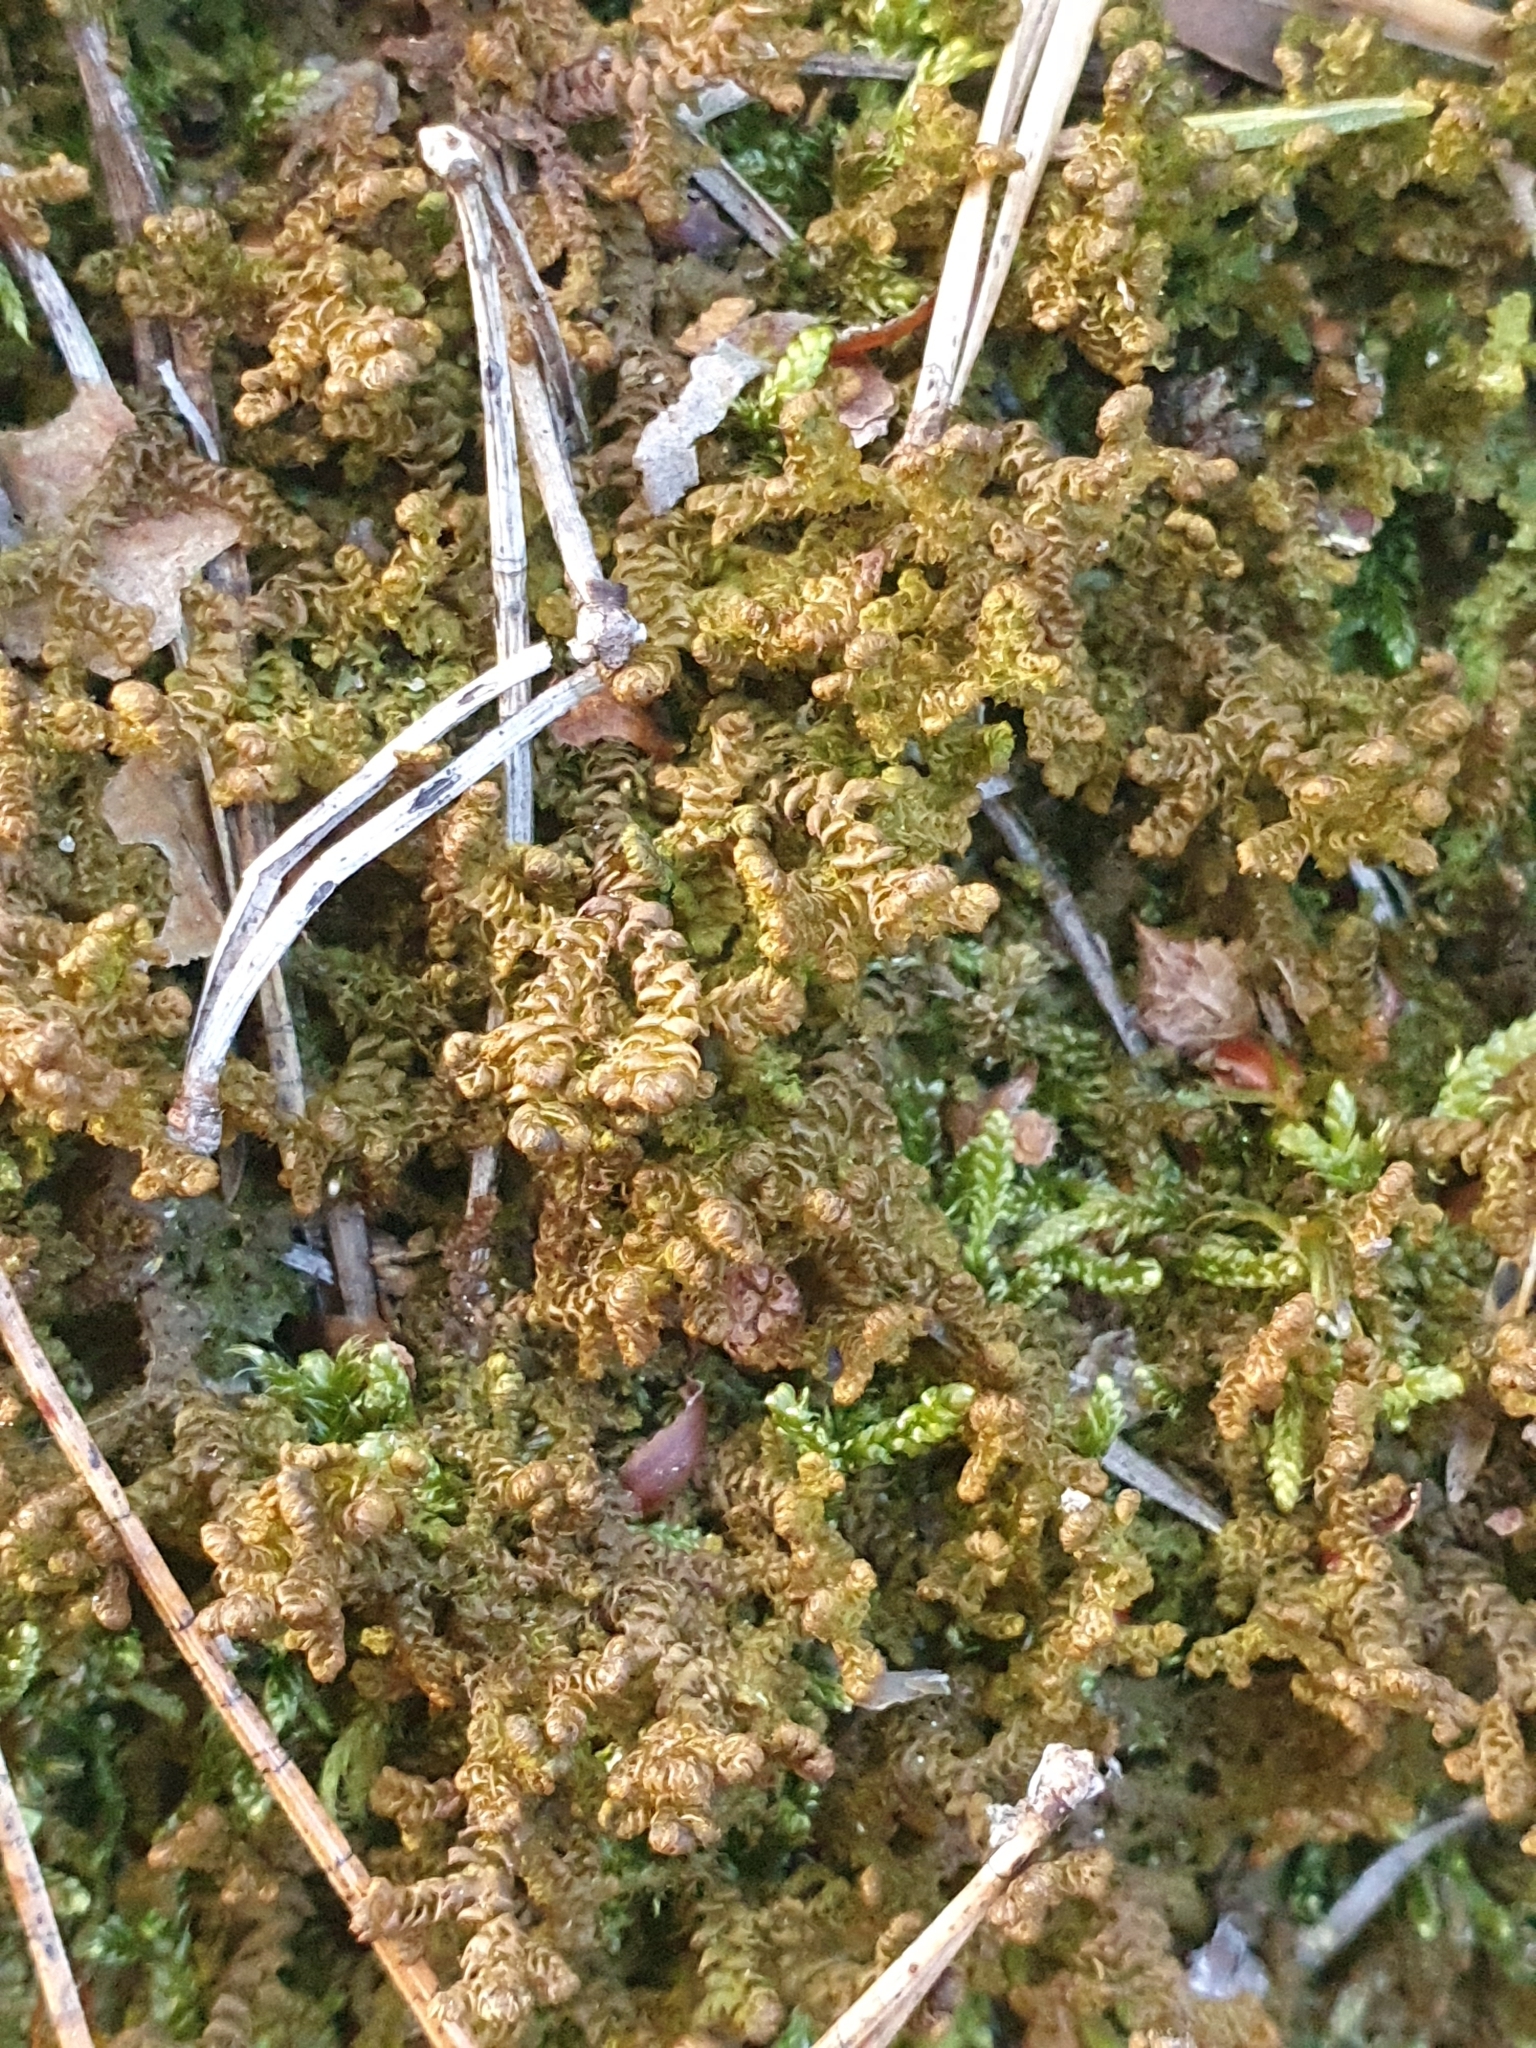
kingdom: Plantae
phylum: Marchantiophyta
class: Jungermanniopsida
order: Ptilidiales
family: Ptilidiaceae
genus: Ptilidium
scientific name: Ptilidium ciliare
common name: Ciliate fringewort
